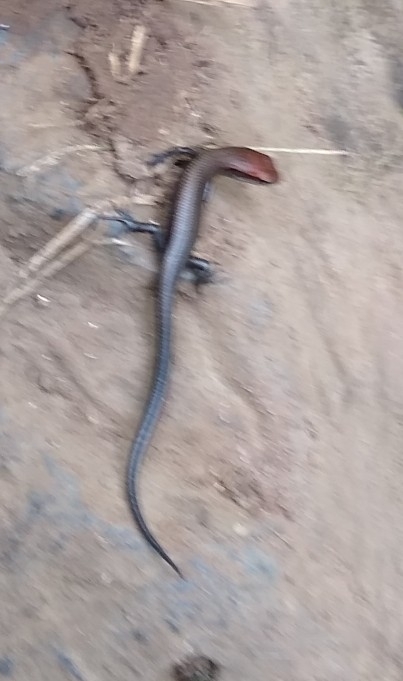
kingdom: Animalia
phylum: Chordata
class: Squamata
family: Scincidae
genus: Lampropholis
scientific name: Lampropholis delicata
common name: Plague skink
